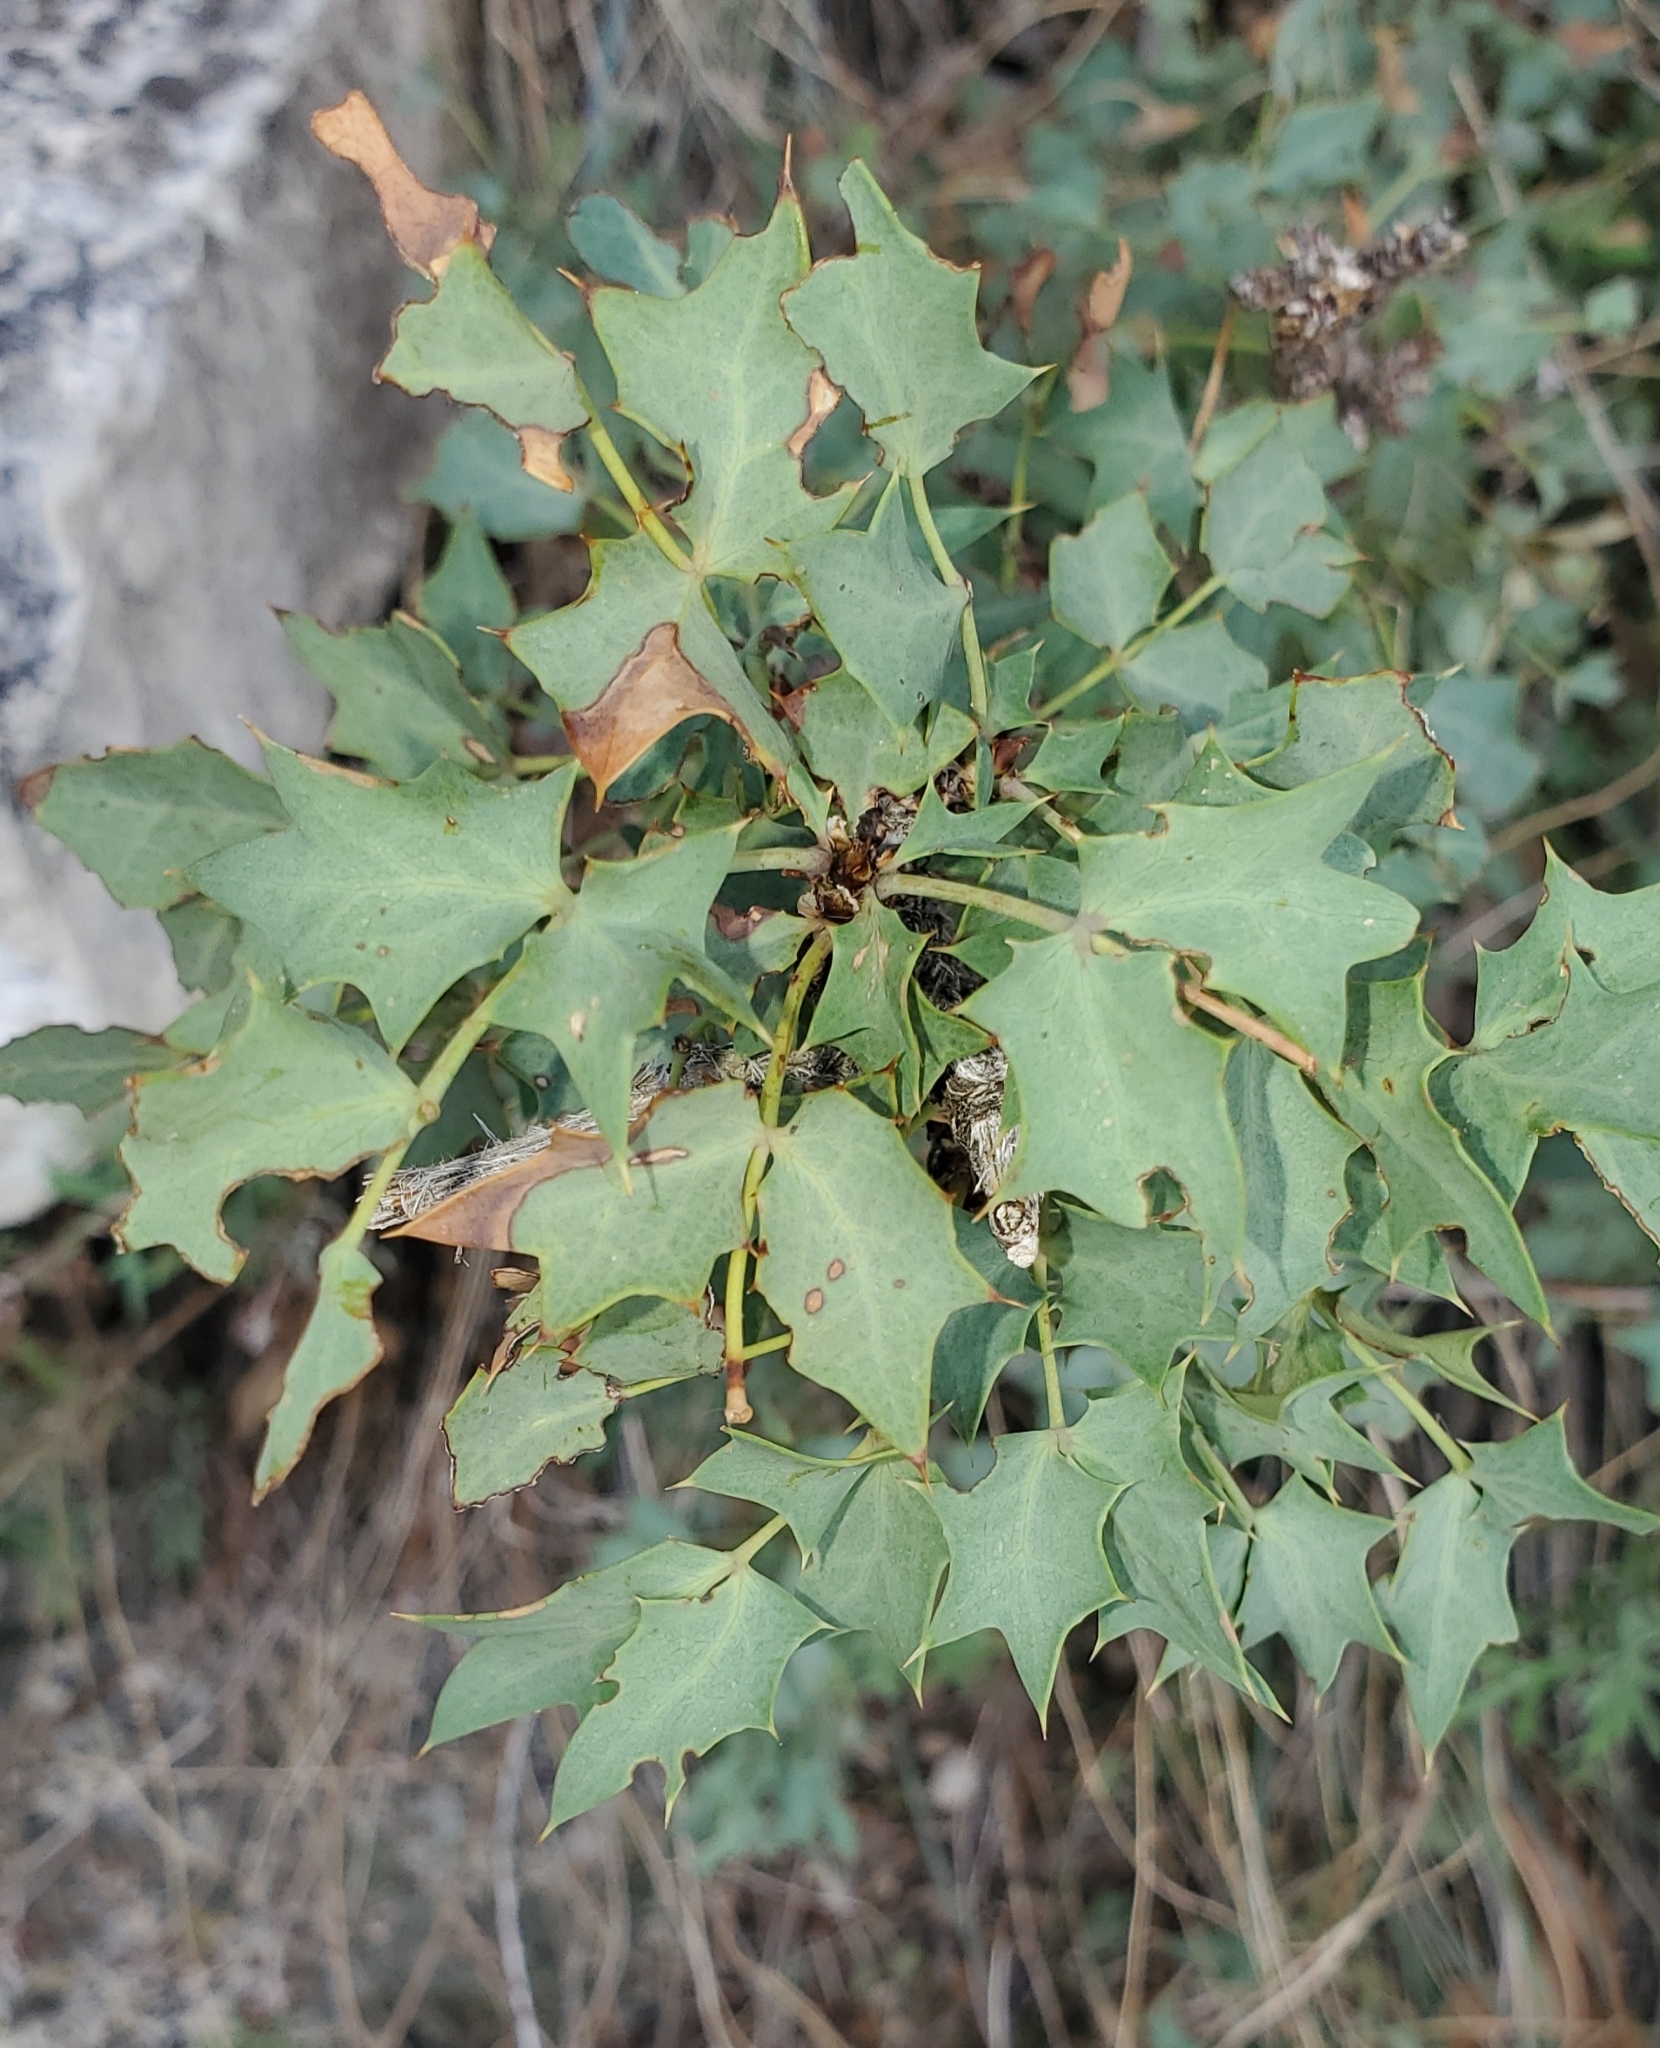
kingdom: Plantae
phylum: Tracheophyta
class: Magnoliopsida
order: Ranunculales
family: Berberidaceae
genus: Alloberberis
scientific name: Alloberberis fremontii
